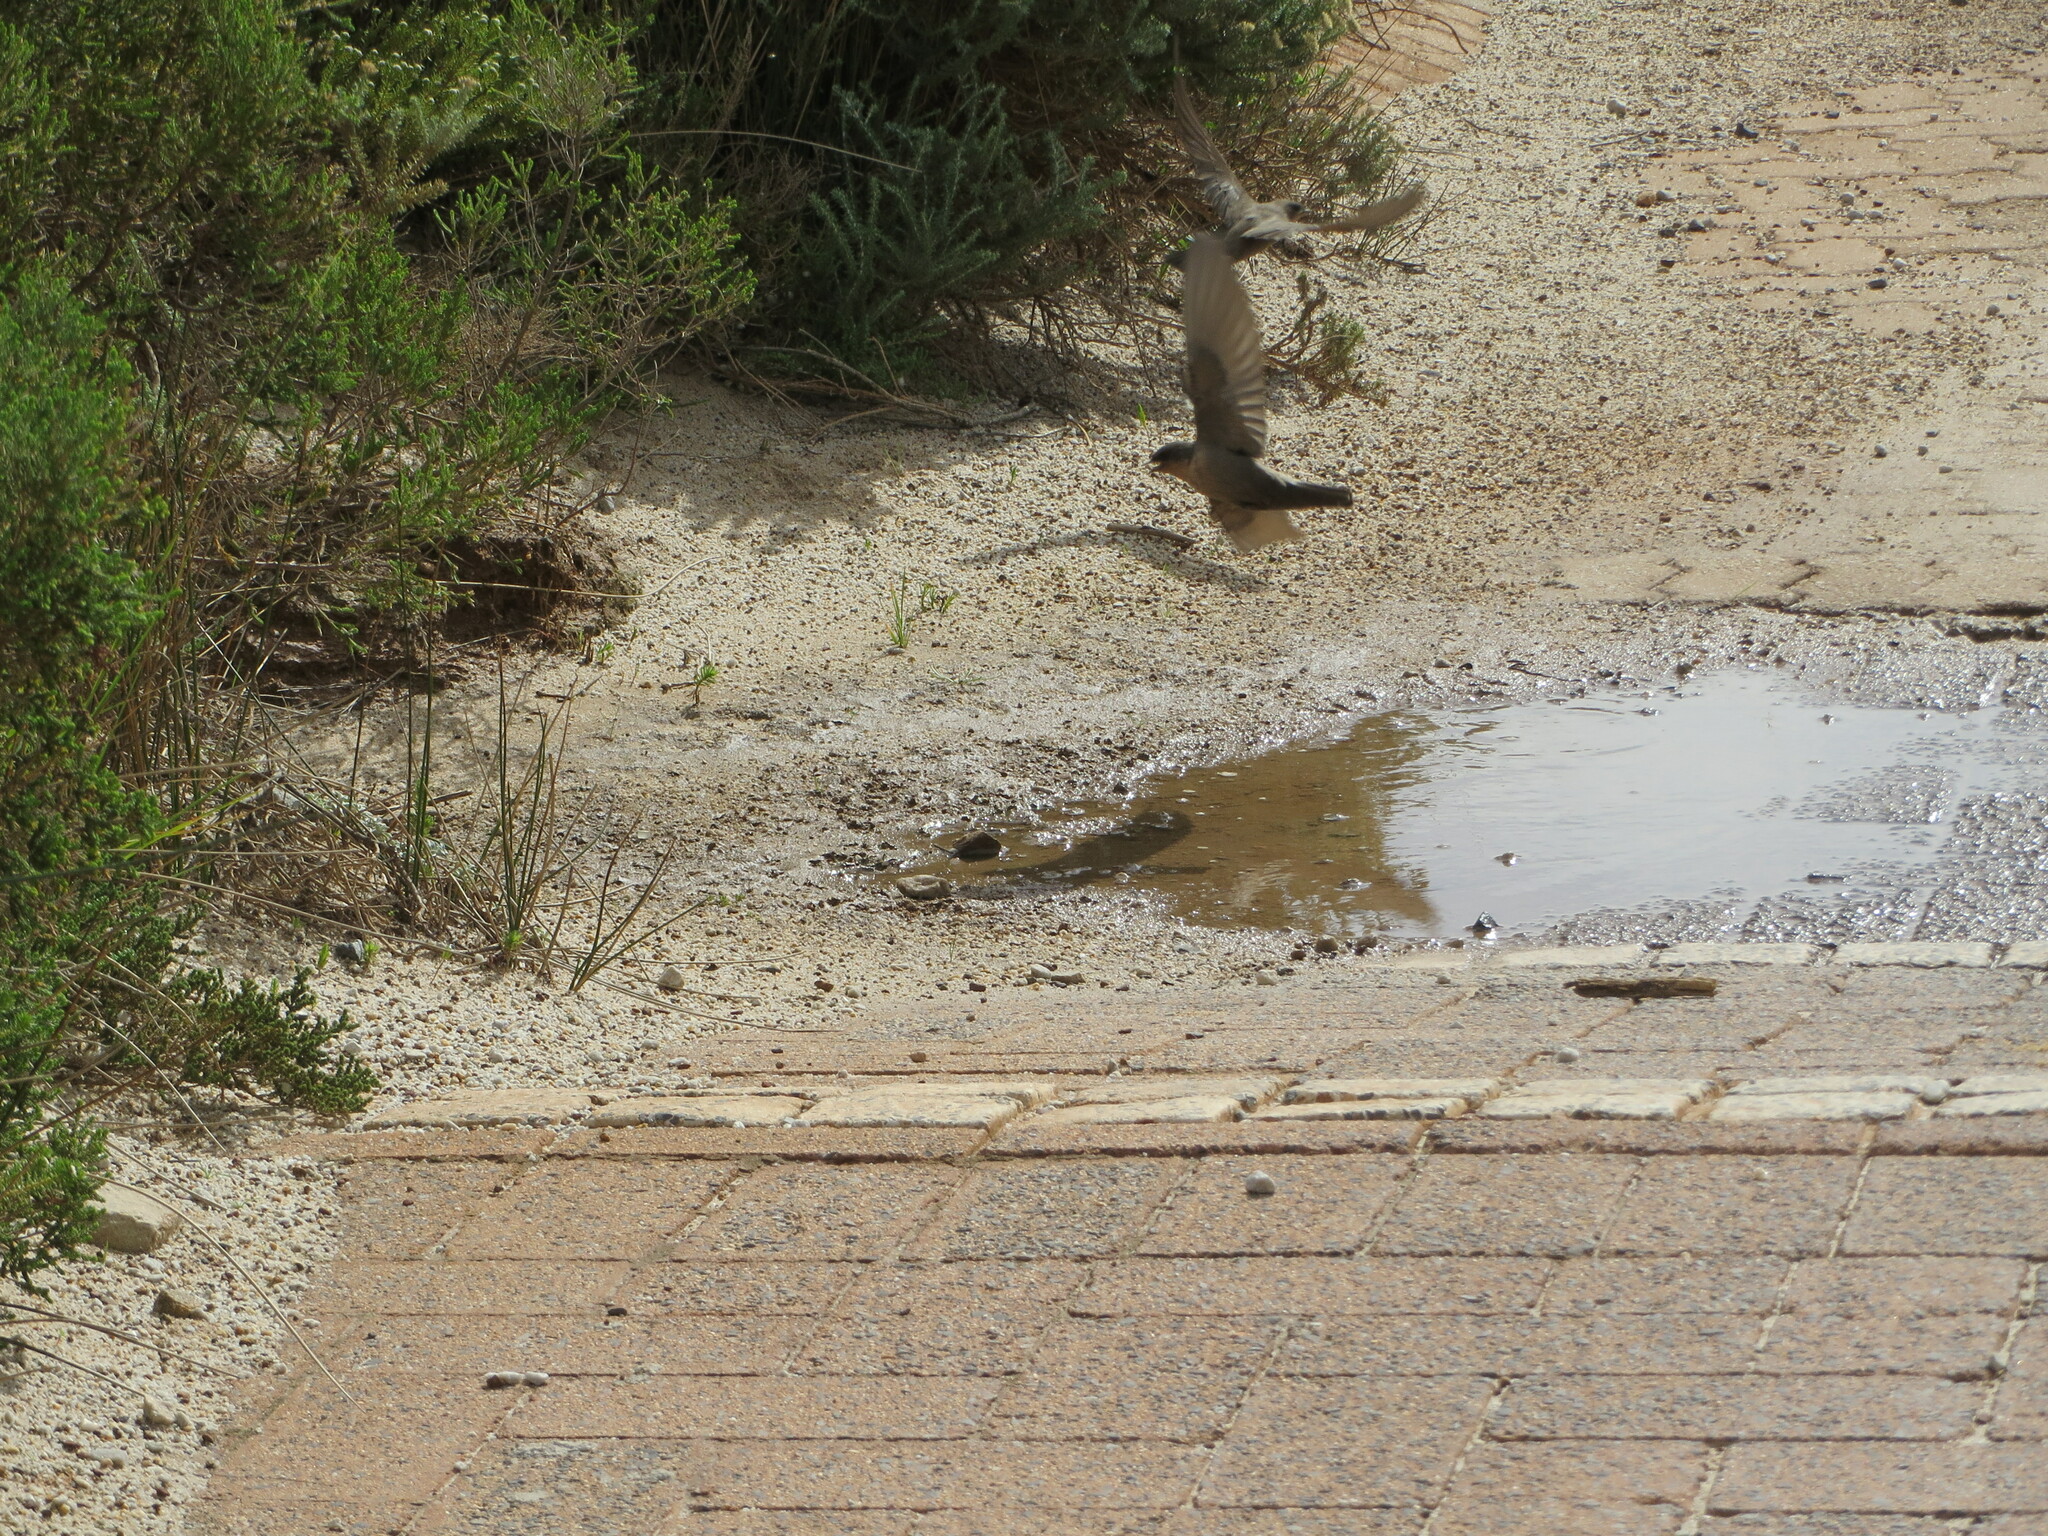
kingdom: Animalia
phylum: Chordata
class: Aves
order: Passeriformes
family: Hirundinidae
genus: Ptyonoprogne
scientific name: Ptyonoprogne fuligula
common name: Rock martin
